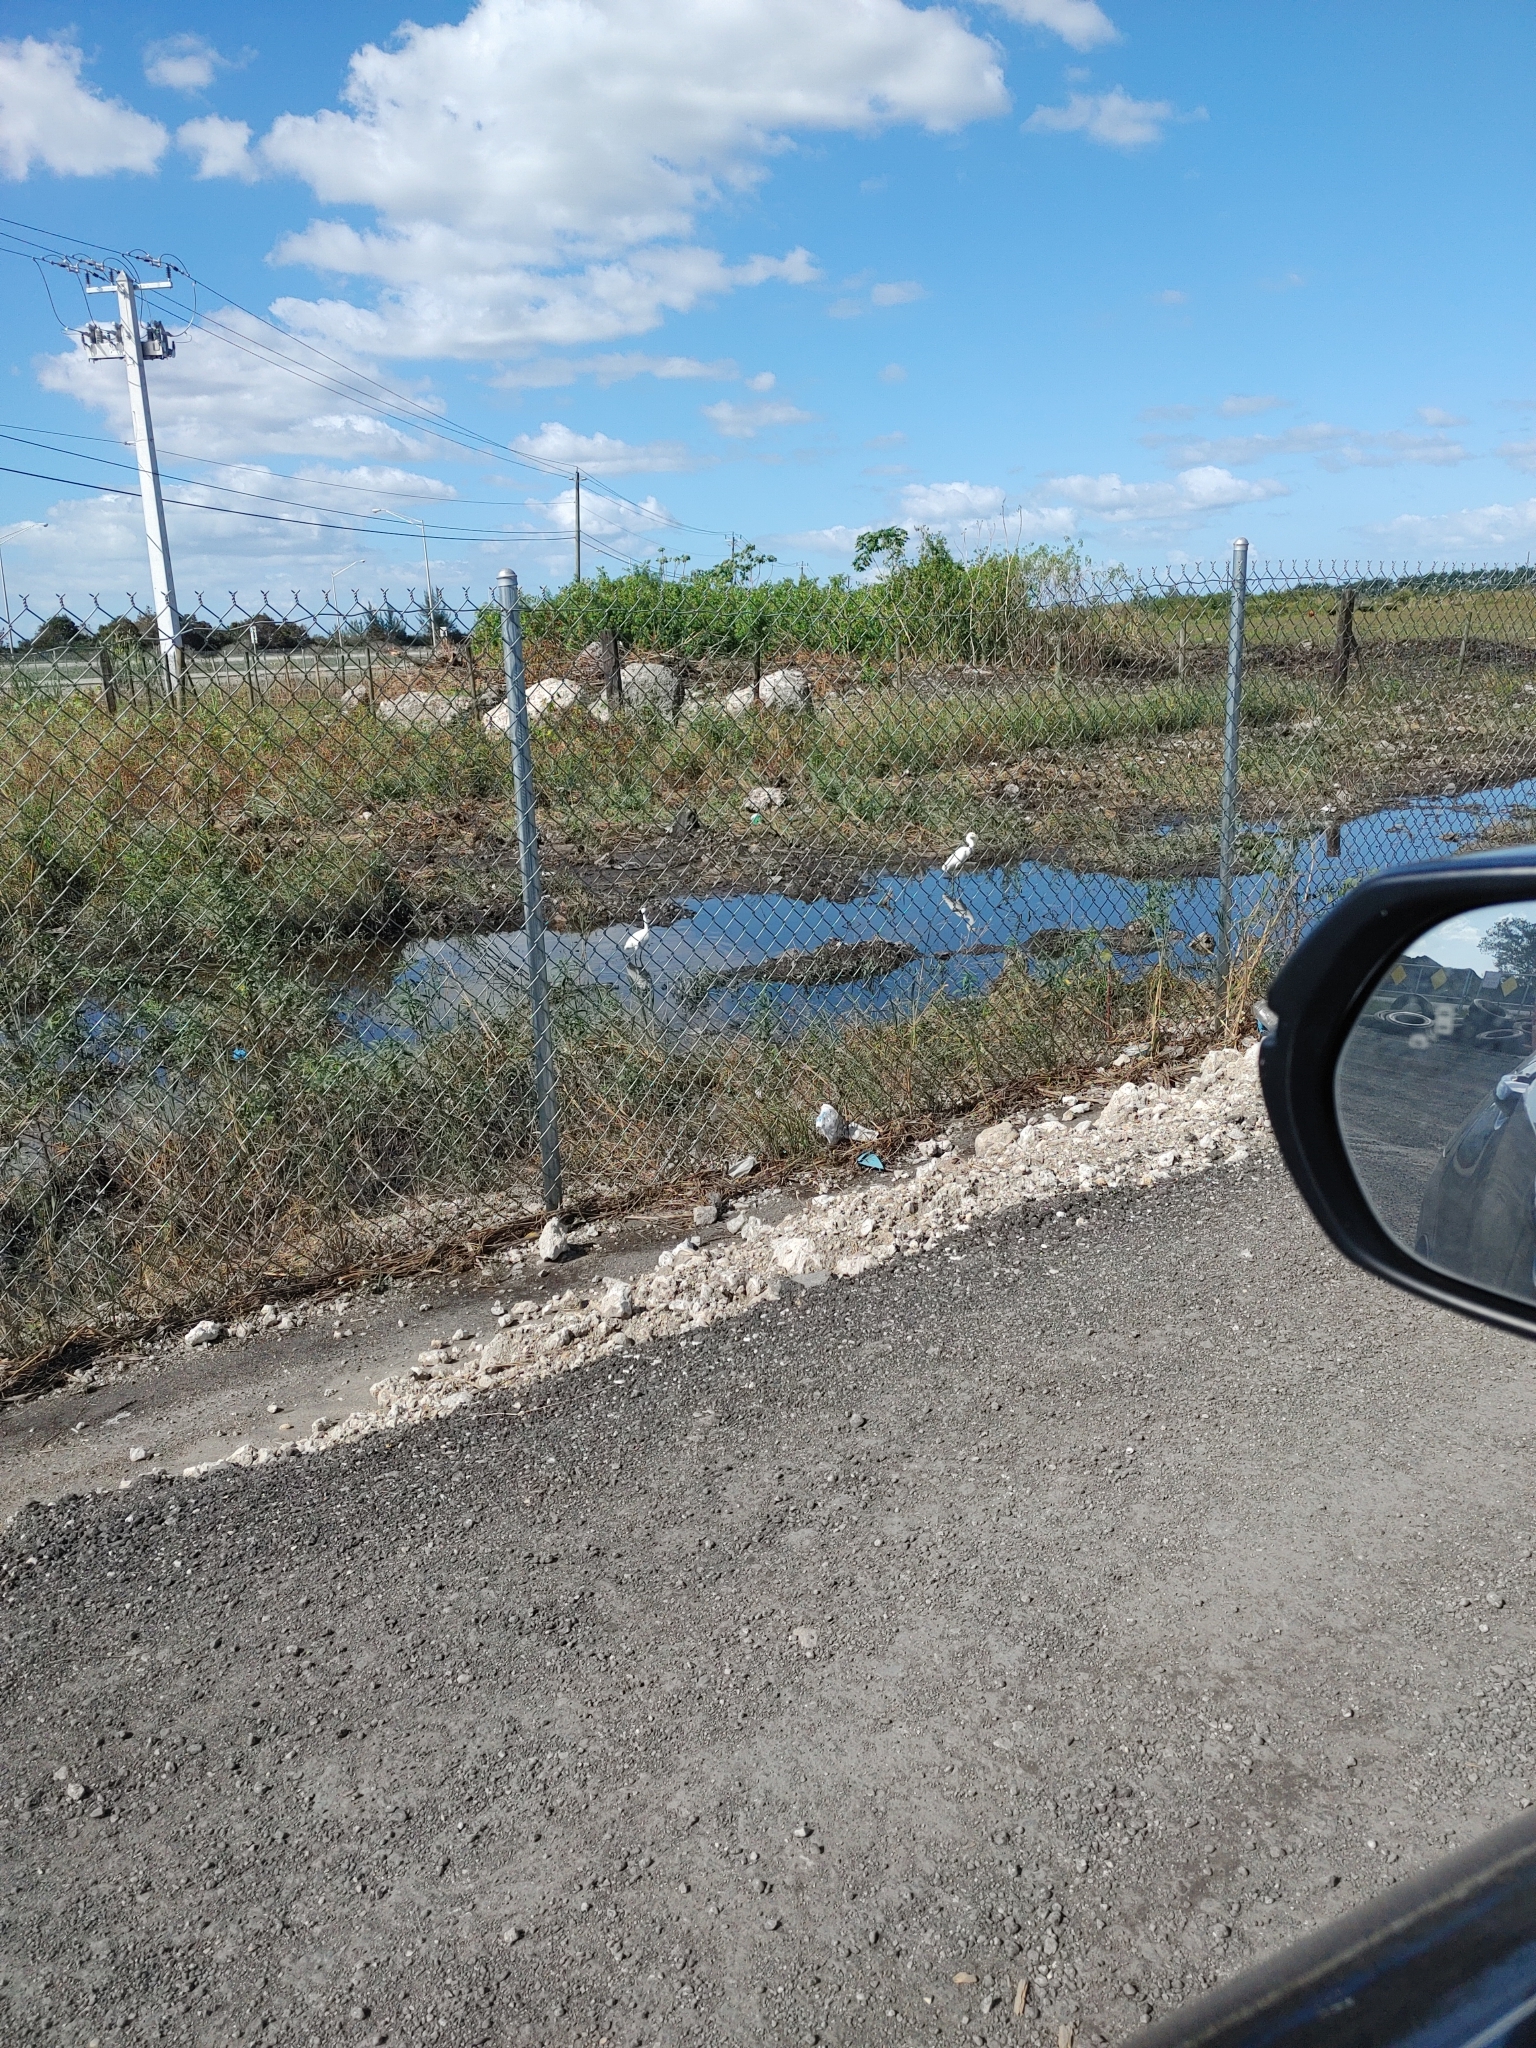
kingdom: Animalia
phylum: Chordata
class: Aves
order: Pelecaniformes
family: Ardeidae
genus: Egretta
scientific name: Egretta thula
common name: Snowy egret
